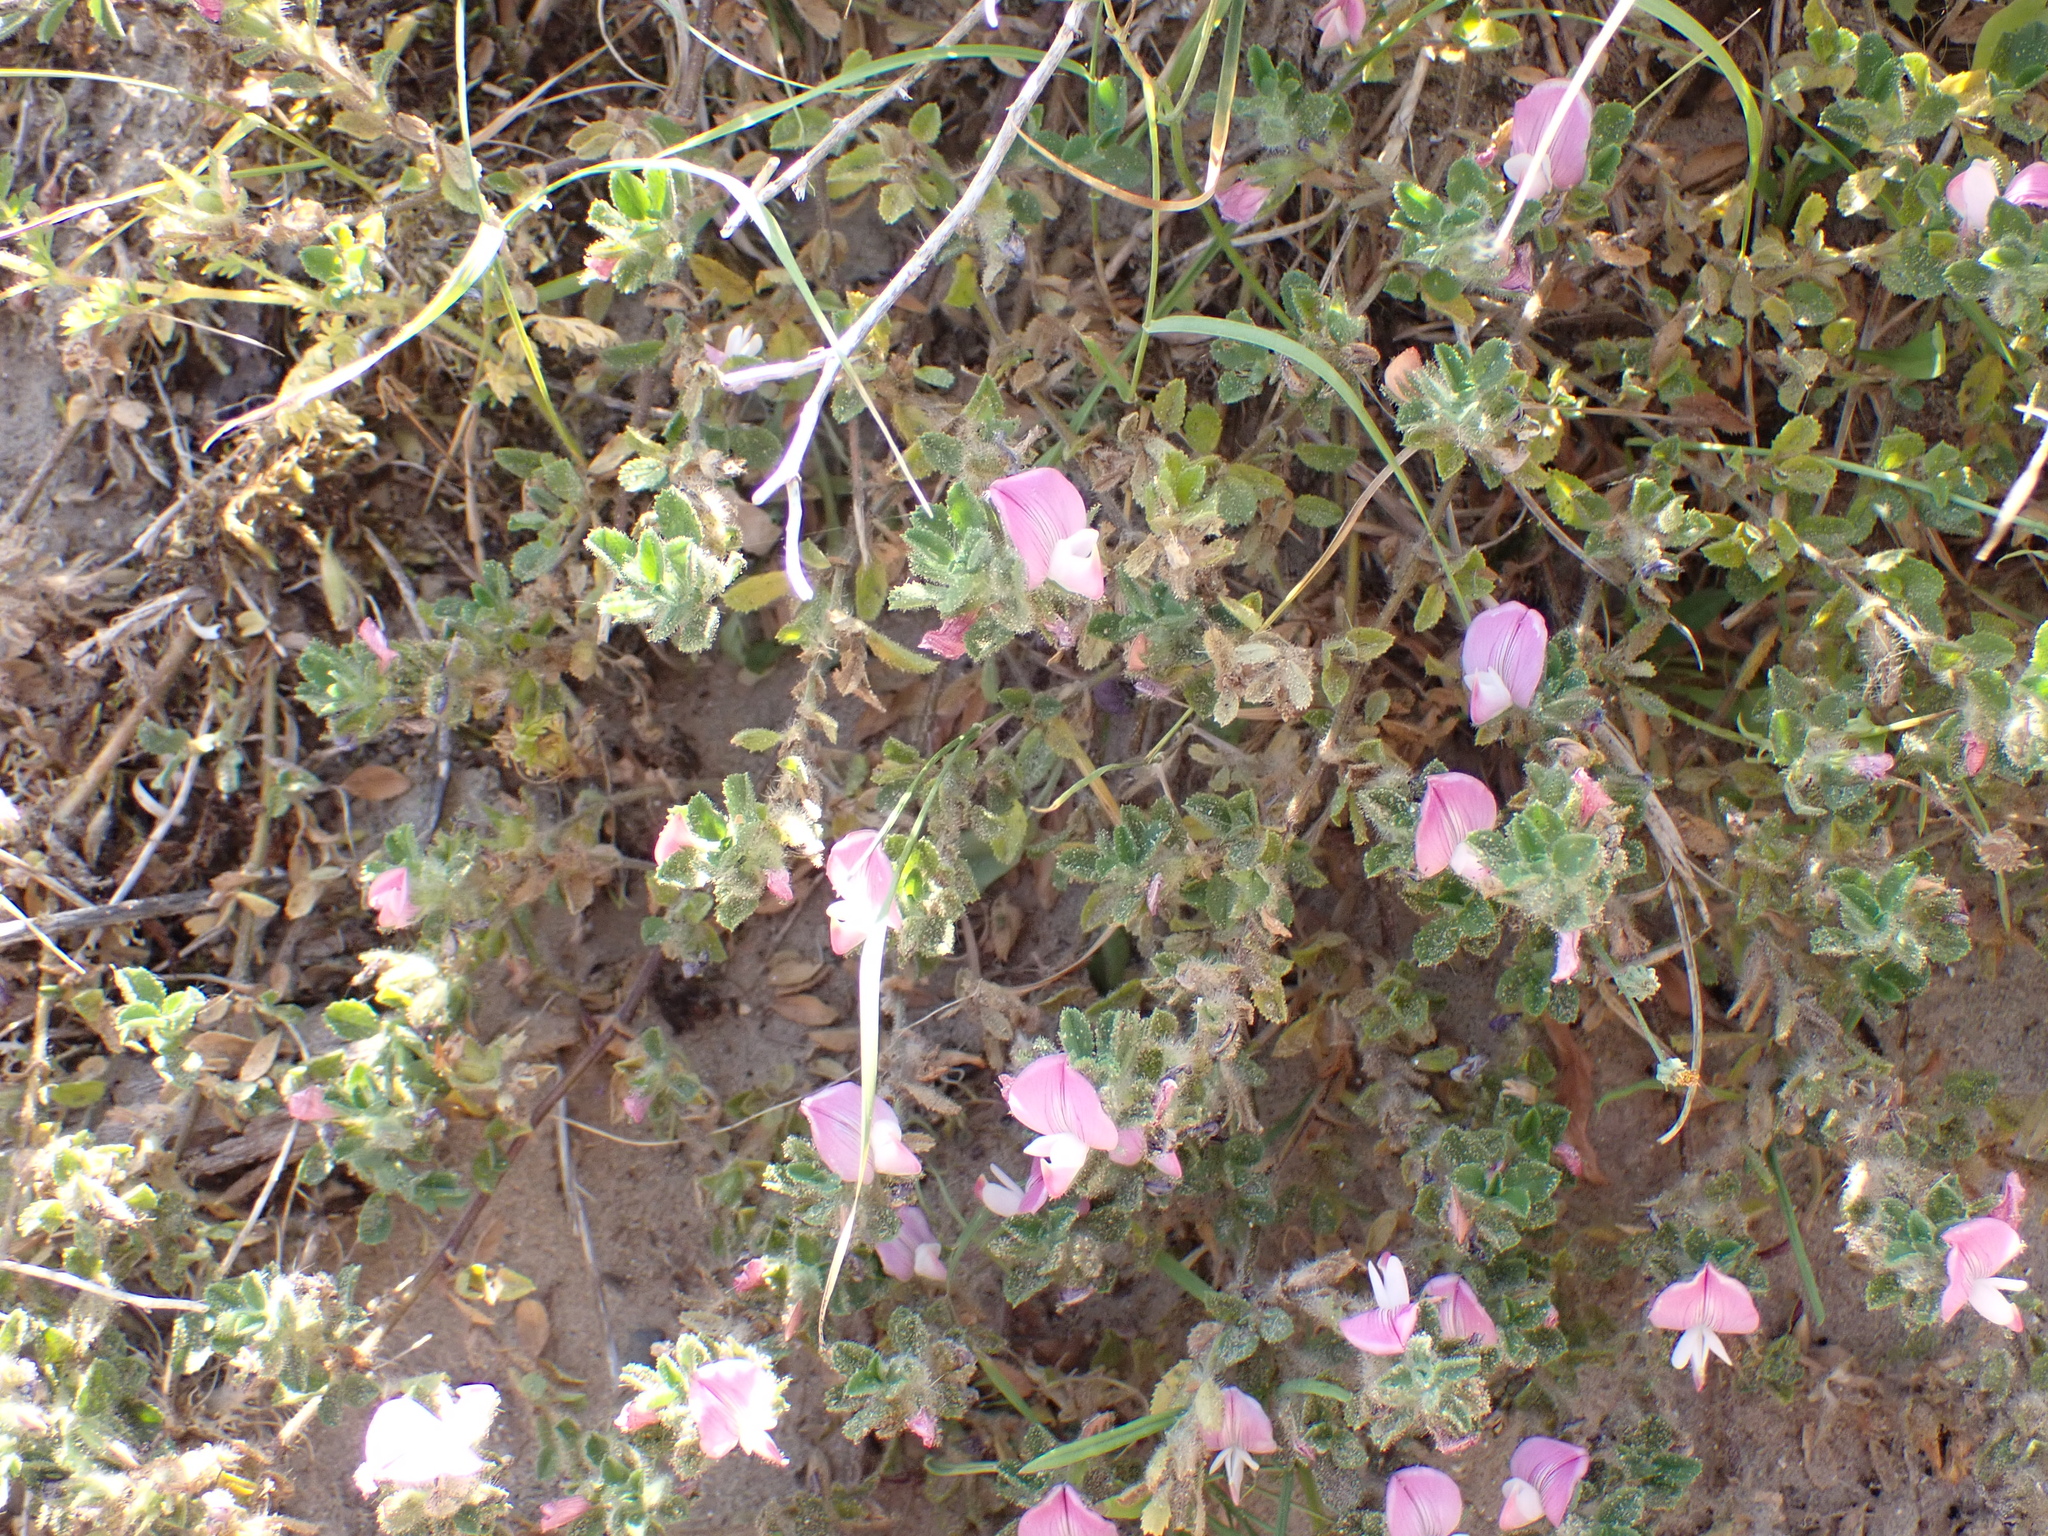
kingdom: Plantae
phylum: Tracheophyta
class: Magnoliopsida
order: Fabales
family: Fabaceae
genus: Ononis
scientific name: Ononis spinosa
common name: Spiny restharrow
